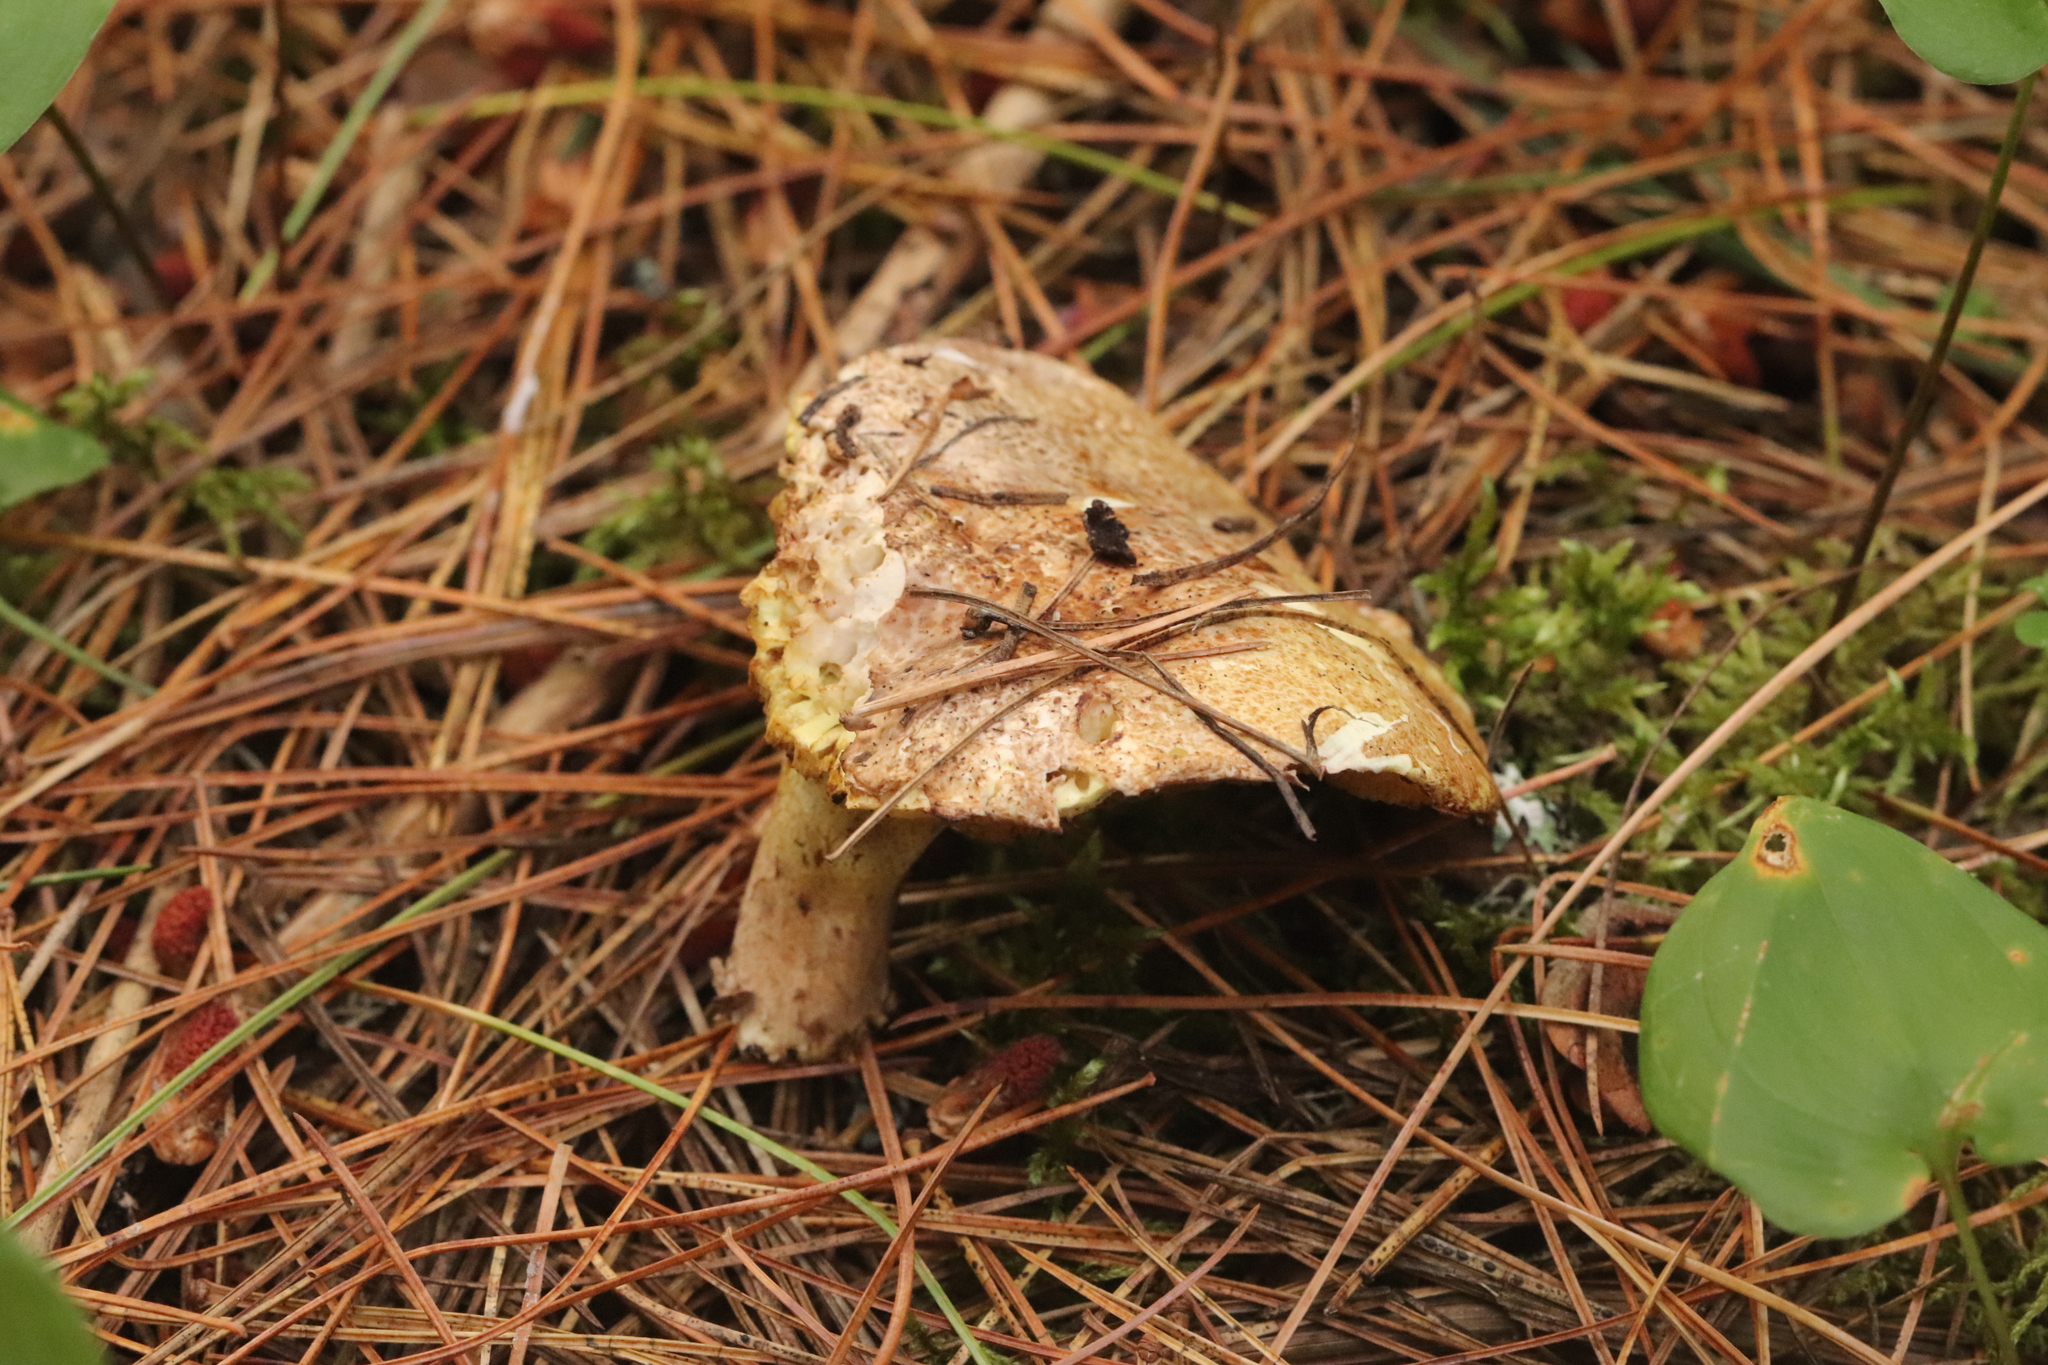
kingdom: Fungi
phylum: Basidiomycota
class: Agaricomycetes
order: Boletales
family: Suillaceae
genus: Suillus
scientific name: Suillus placidus
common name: Slippery white bolete
